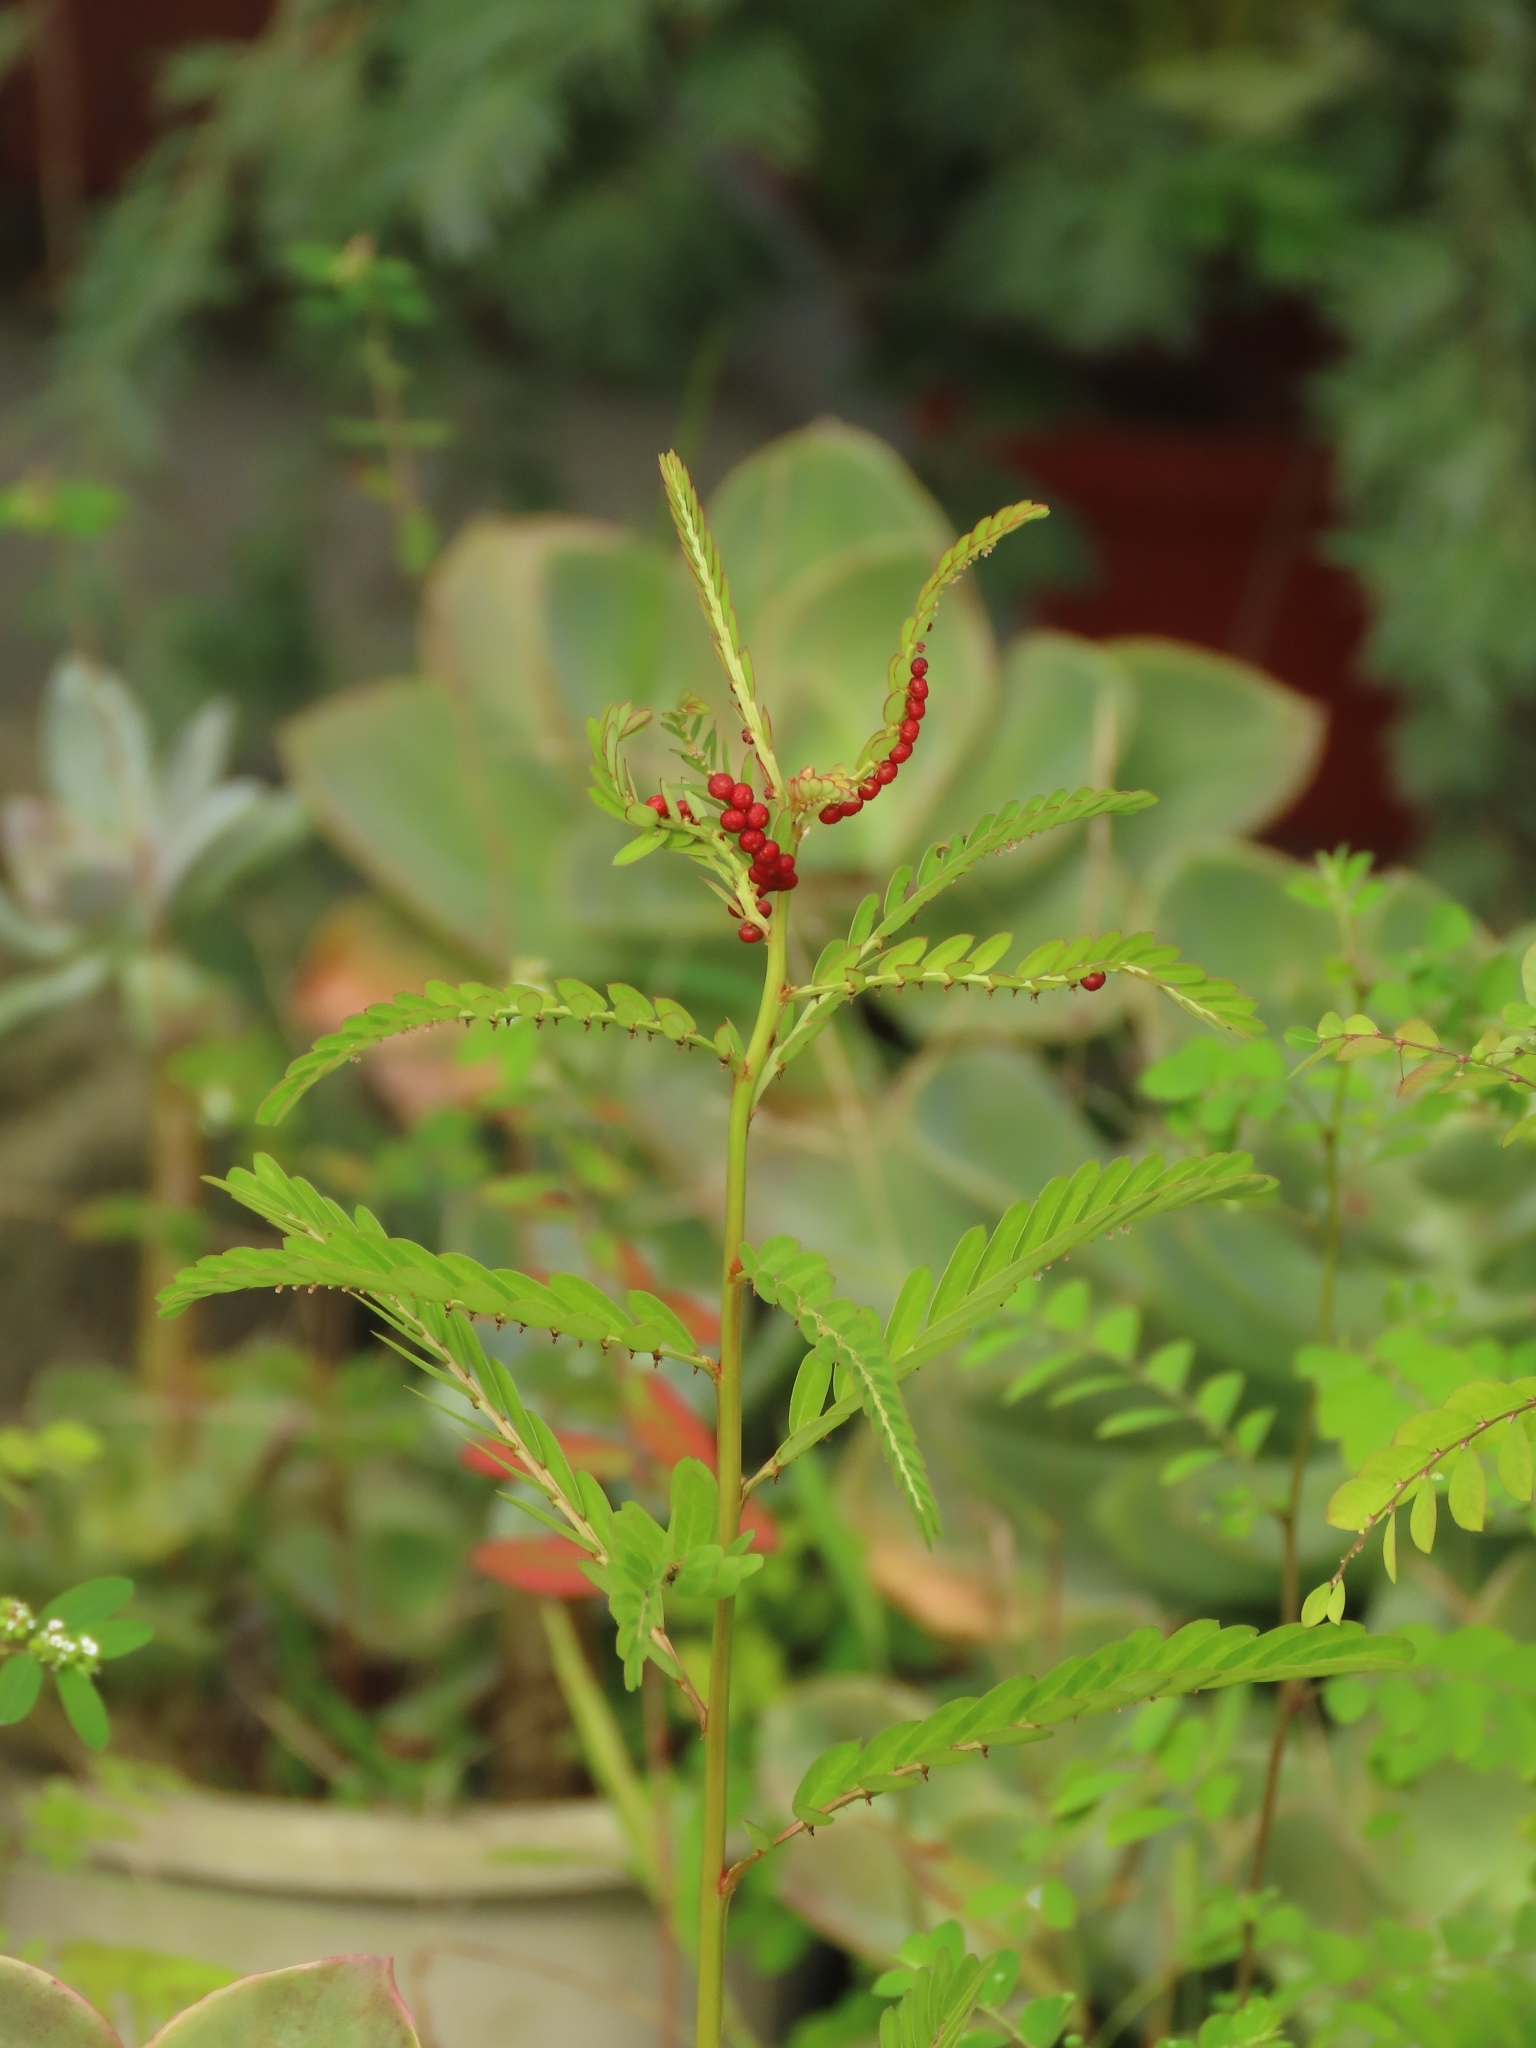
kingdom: Plantae
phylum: Tracheophyta
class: Magnoliopsida
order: Malpighiales
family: Phyllanthaceae
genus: Phyllanthus
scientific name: Phyllanthus urinaria
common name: Chamber bitter
